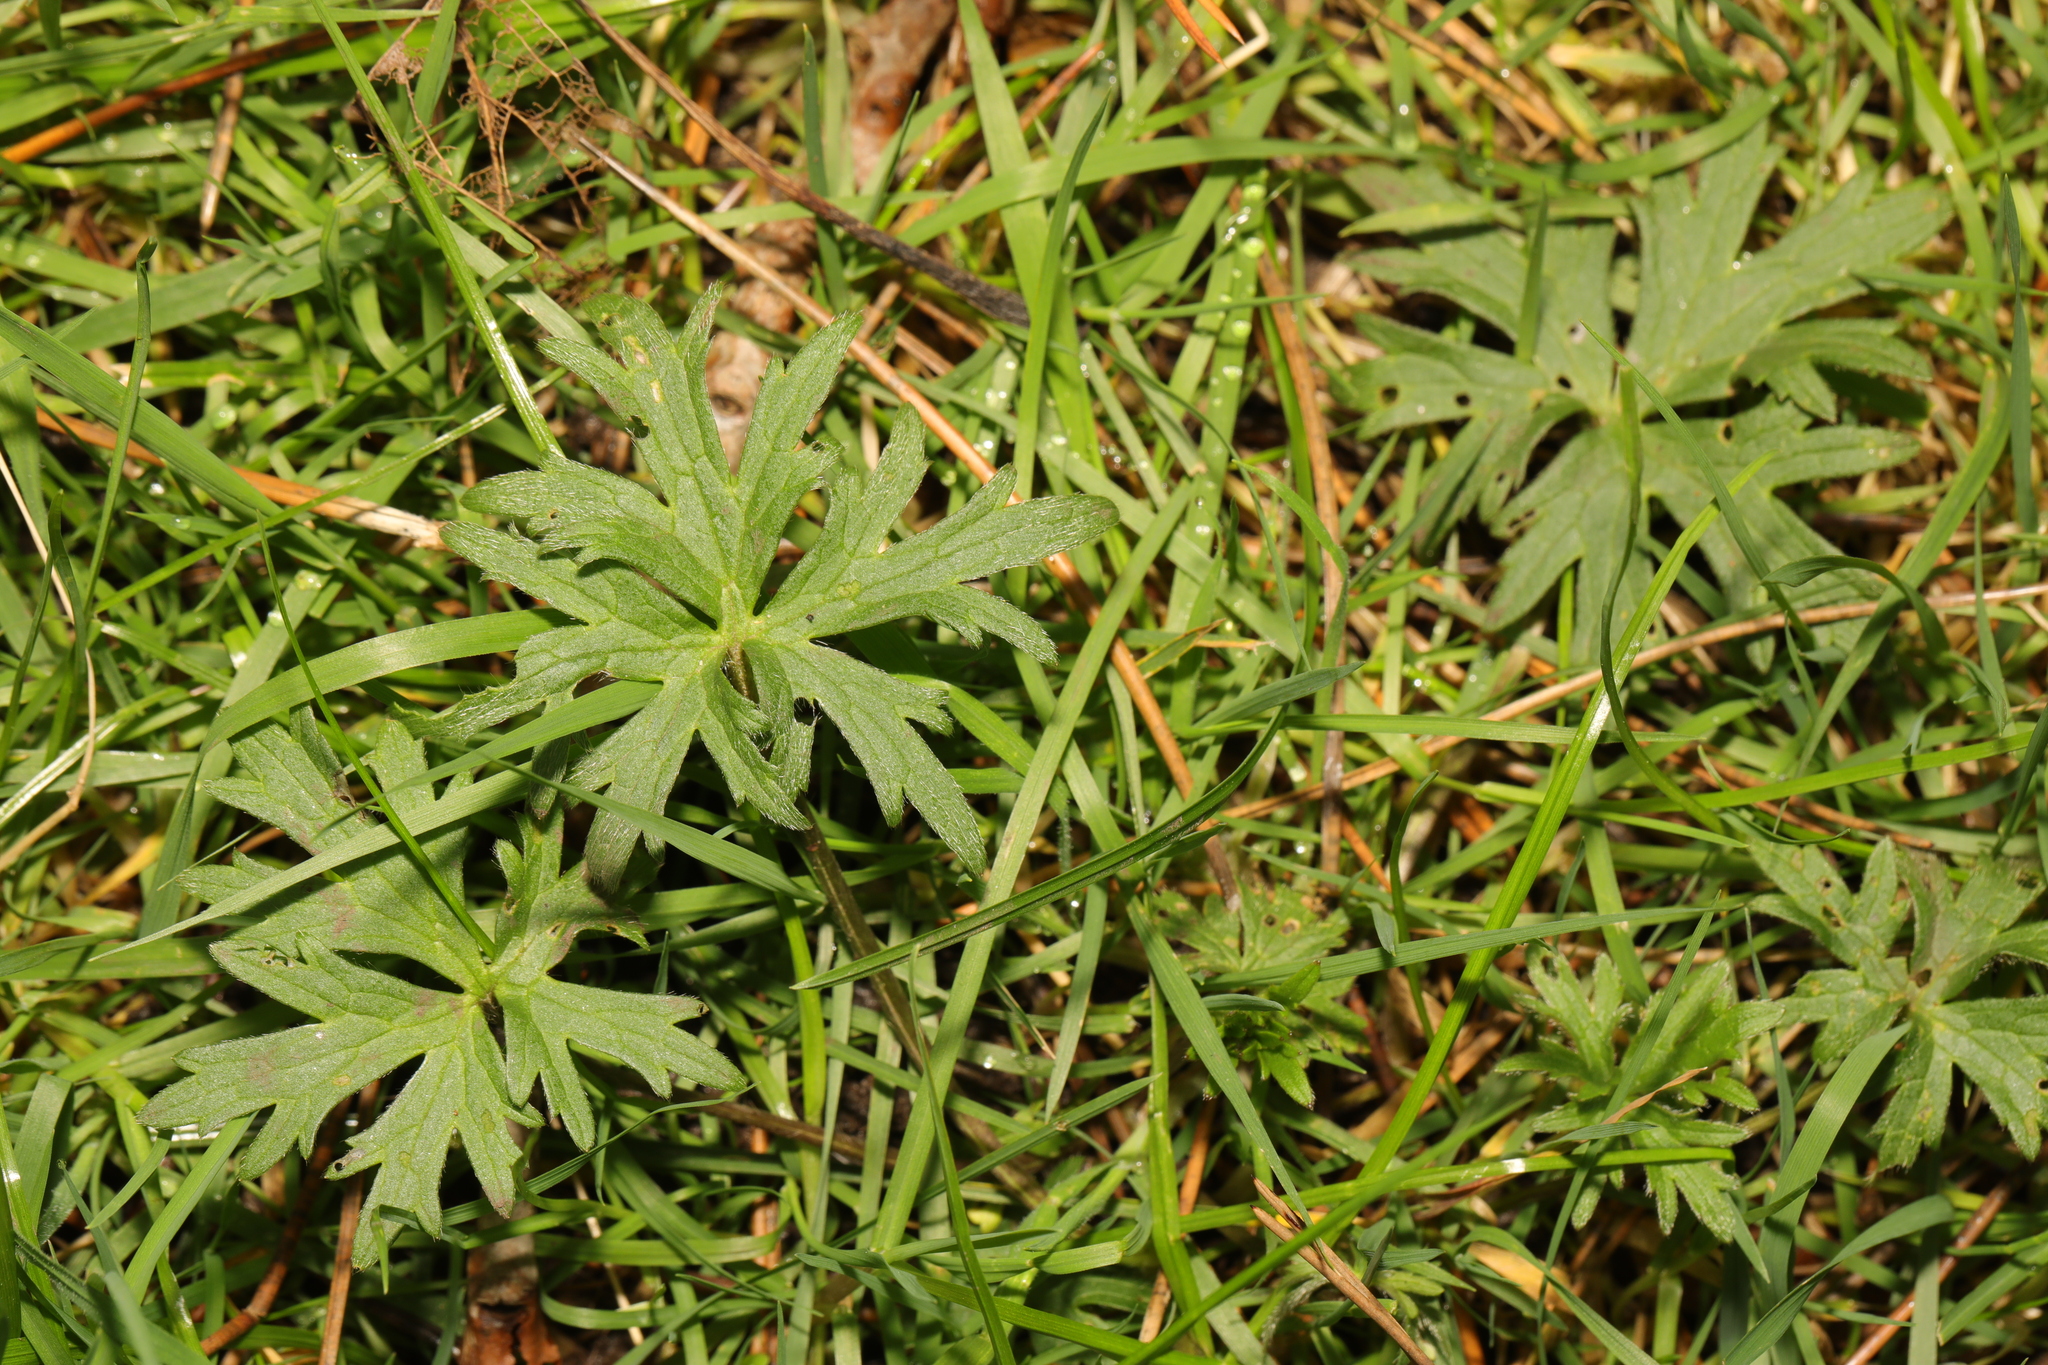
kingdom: Plantae
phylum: Tracheophyta
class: Magnoliopsida
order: Ranunculales
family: Ranunculaceae
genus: Ranunculus
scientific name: Ranunculus acris
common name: Meadow buttercup
